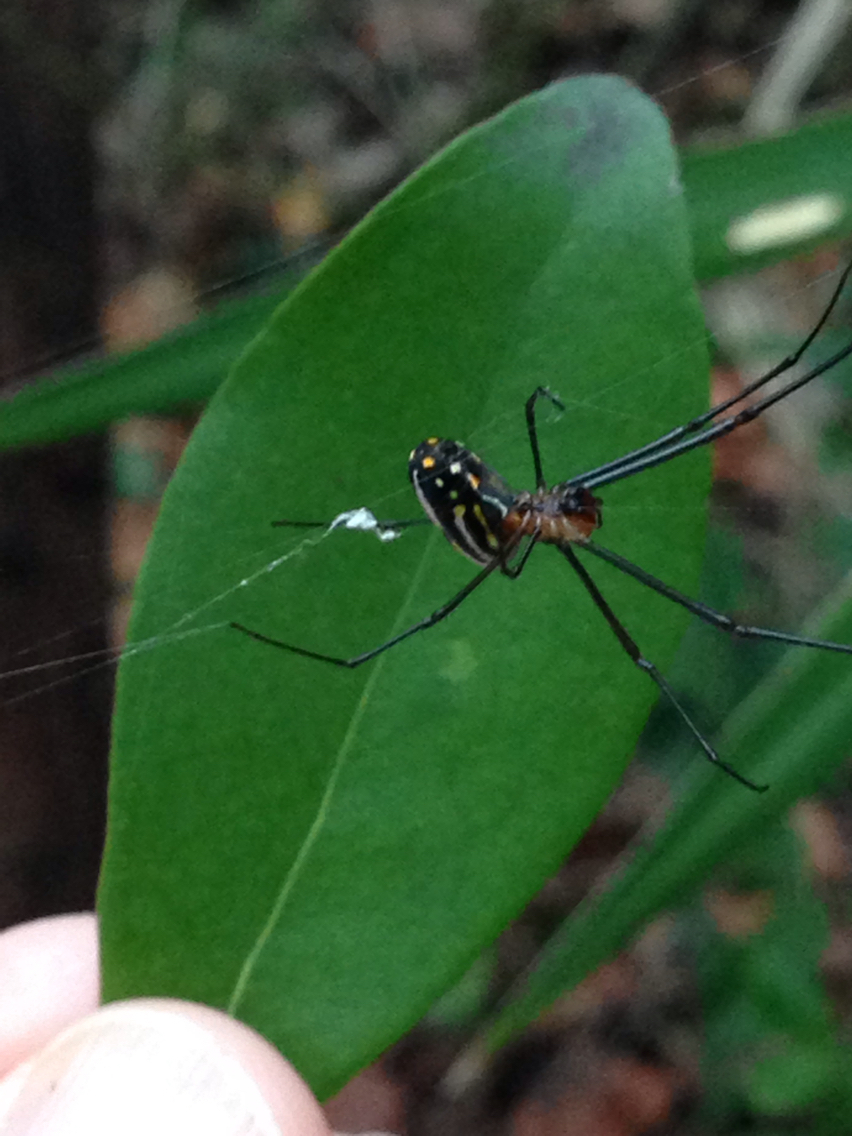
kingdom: Animalia
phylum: Arthropoda
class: Arachnida
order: Araneae
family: Tetragnathidae
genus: Leucauge
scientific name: Leucauge argyra
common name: Longjawed orb weavers
